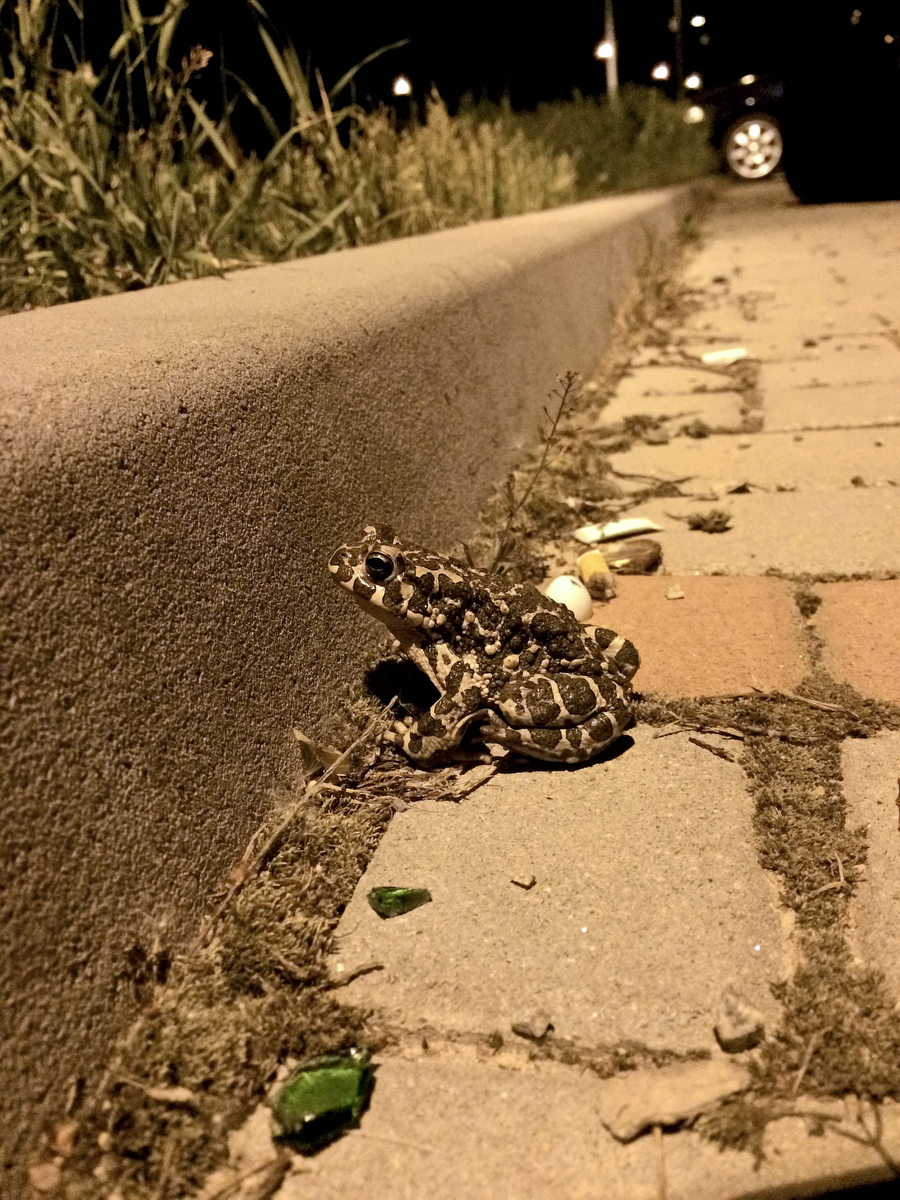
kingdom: Animalia
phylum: Chordata
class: Amphibia
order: Anura
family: Bufonidae
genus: Bufotes
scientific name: Bufotes viridis
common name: European green toad
